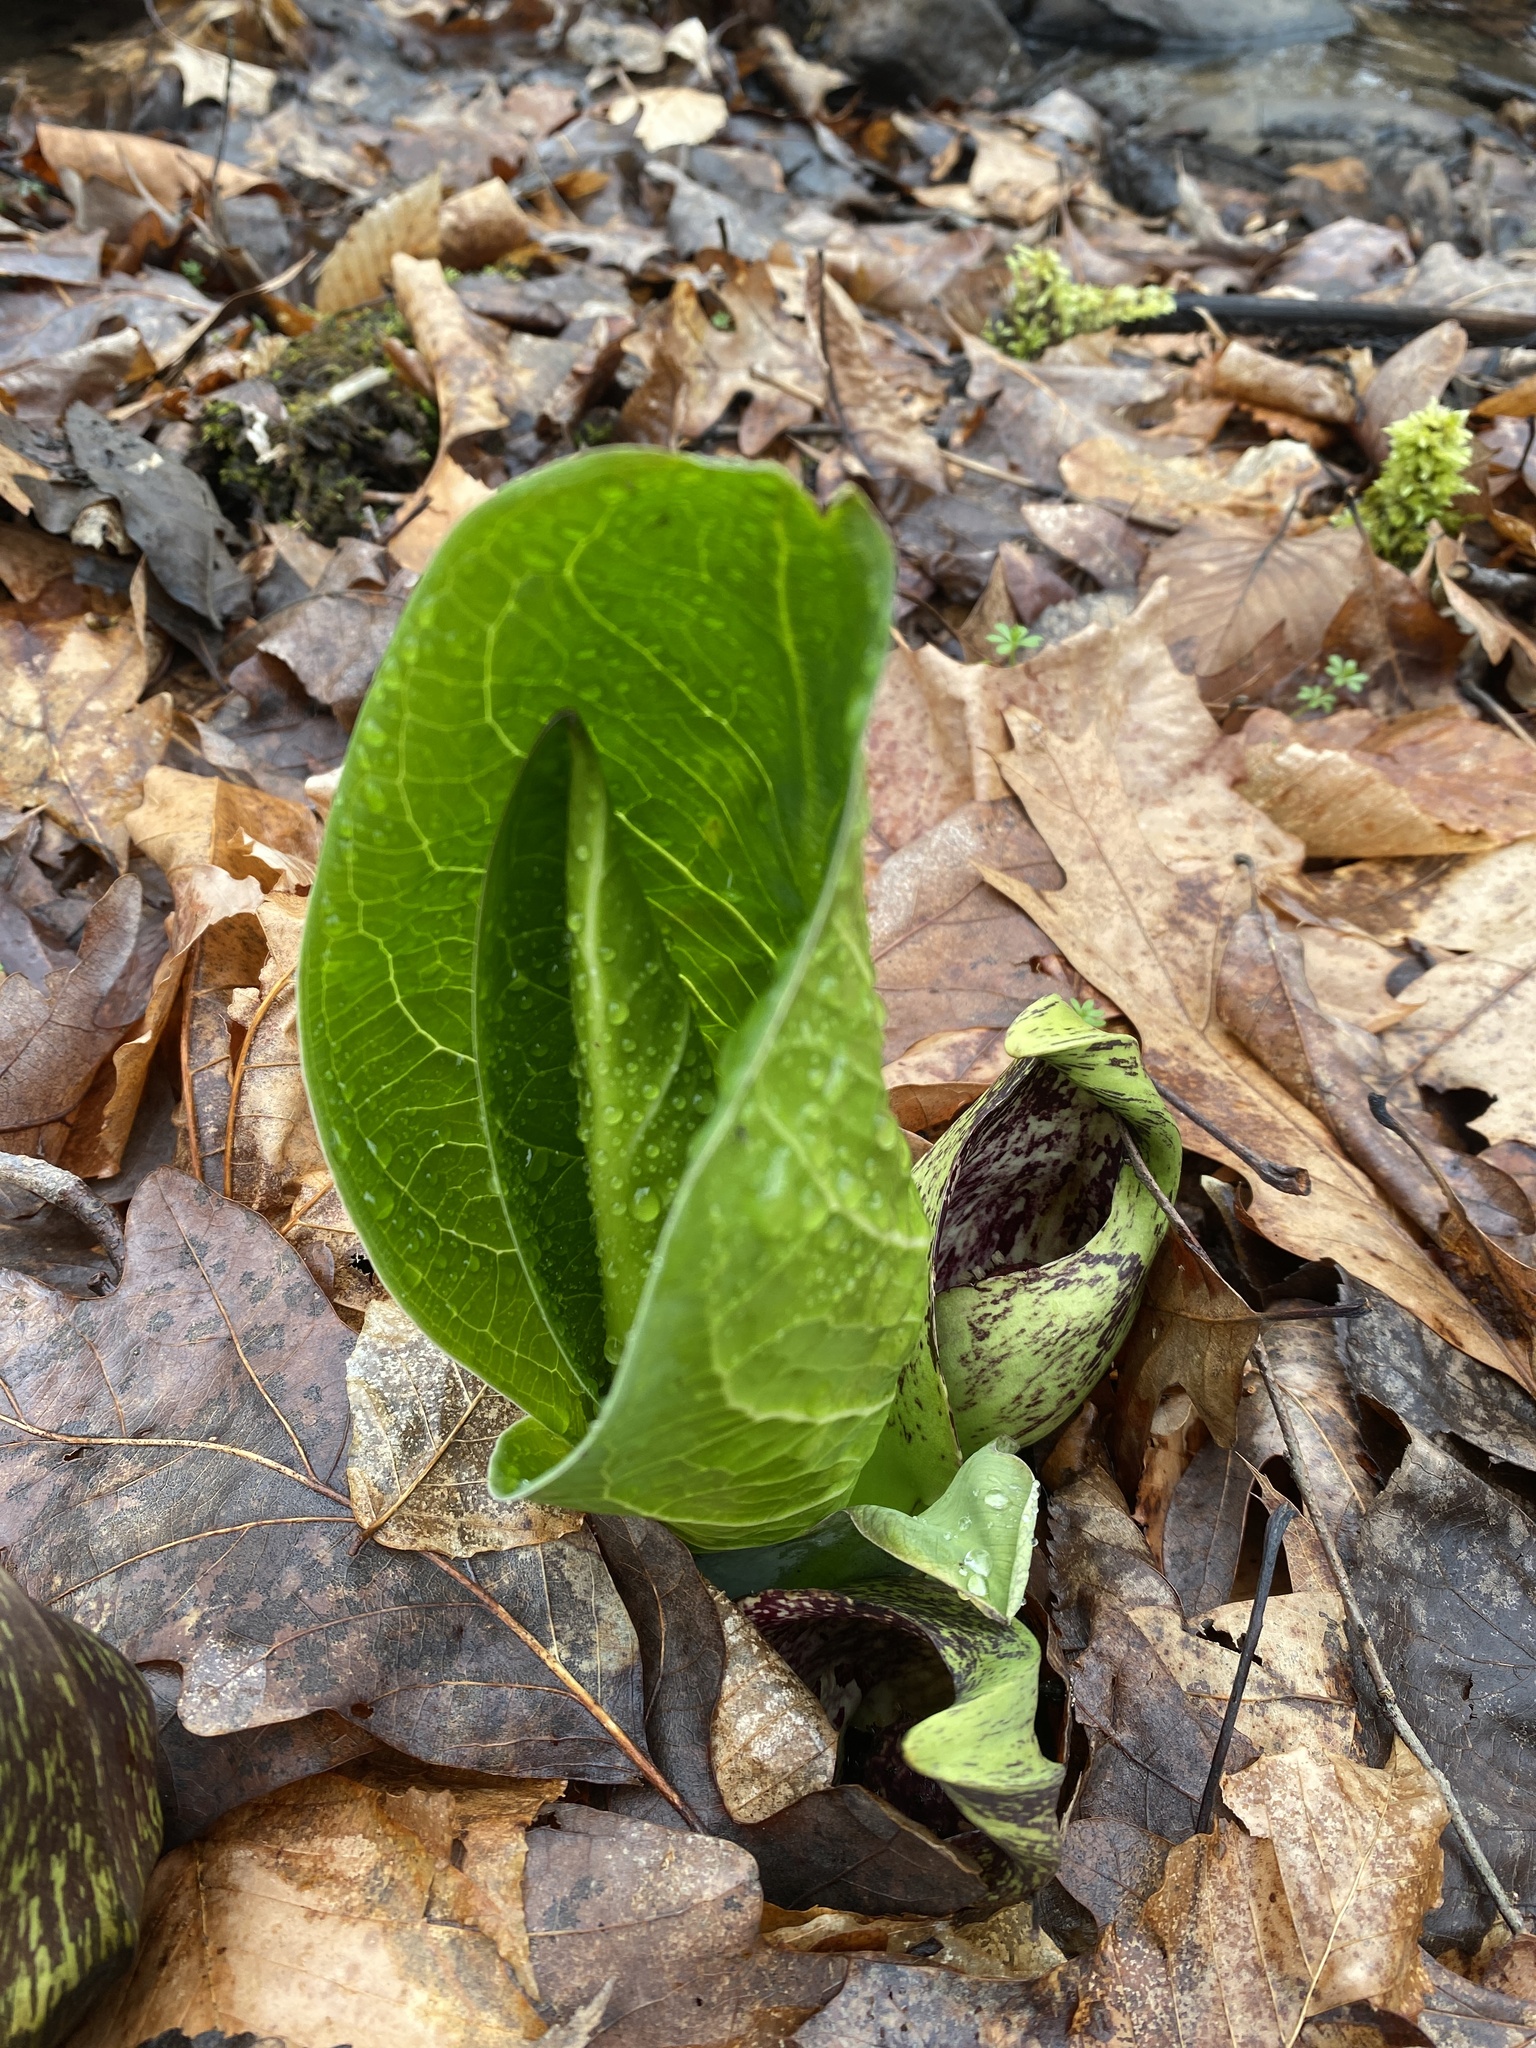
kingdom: Plantae
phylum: Tracheophyta
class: Liliopsida
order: Alismatales
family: Araceae
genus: Symplocarpus
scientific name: Symplocarpus foetidus
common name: Eastern skunk cabbage
